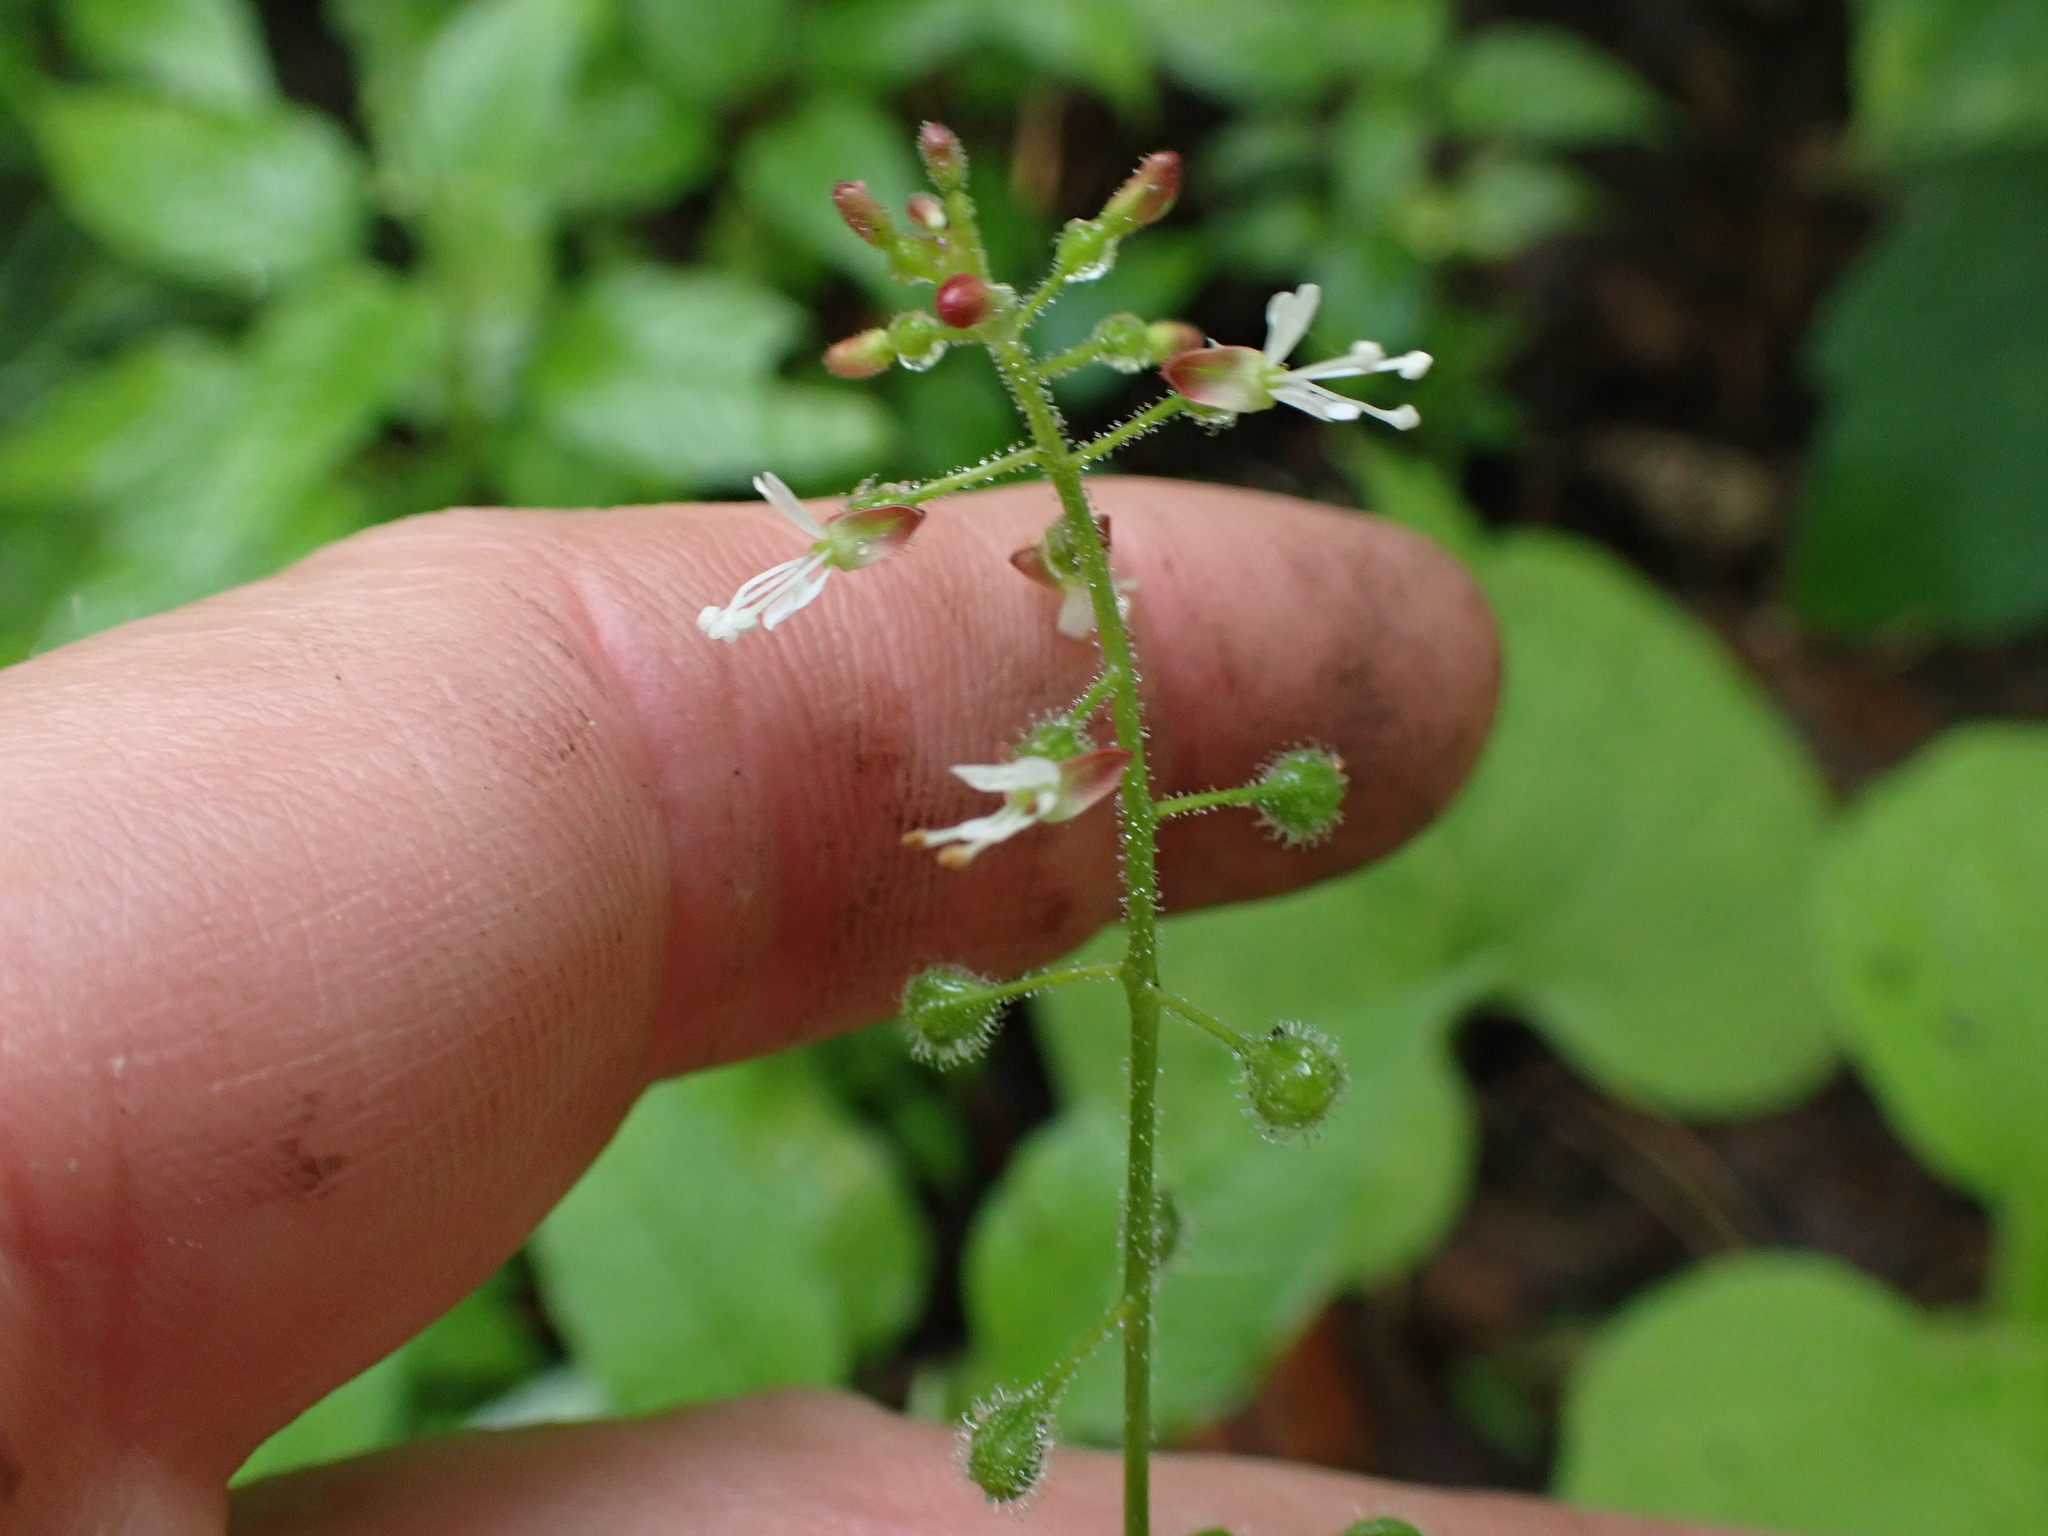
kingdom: Plantae
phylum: Tracheophyta
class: Magnoliopsida
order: Myrtales
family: Onagraceae
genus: Circaea
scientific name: Circaea canadensis
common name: Broad-leaved enchanter's nightshade
